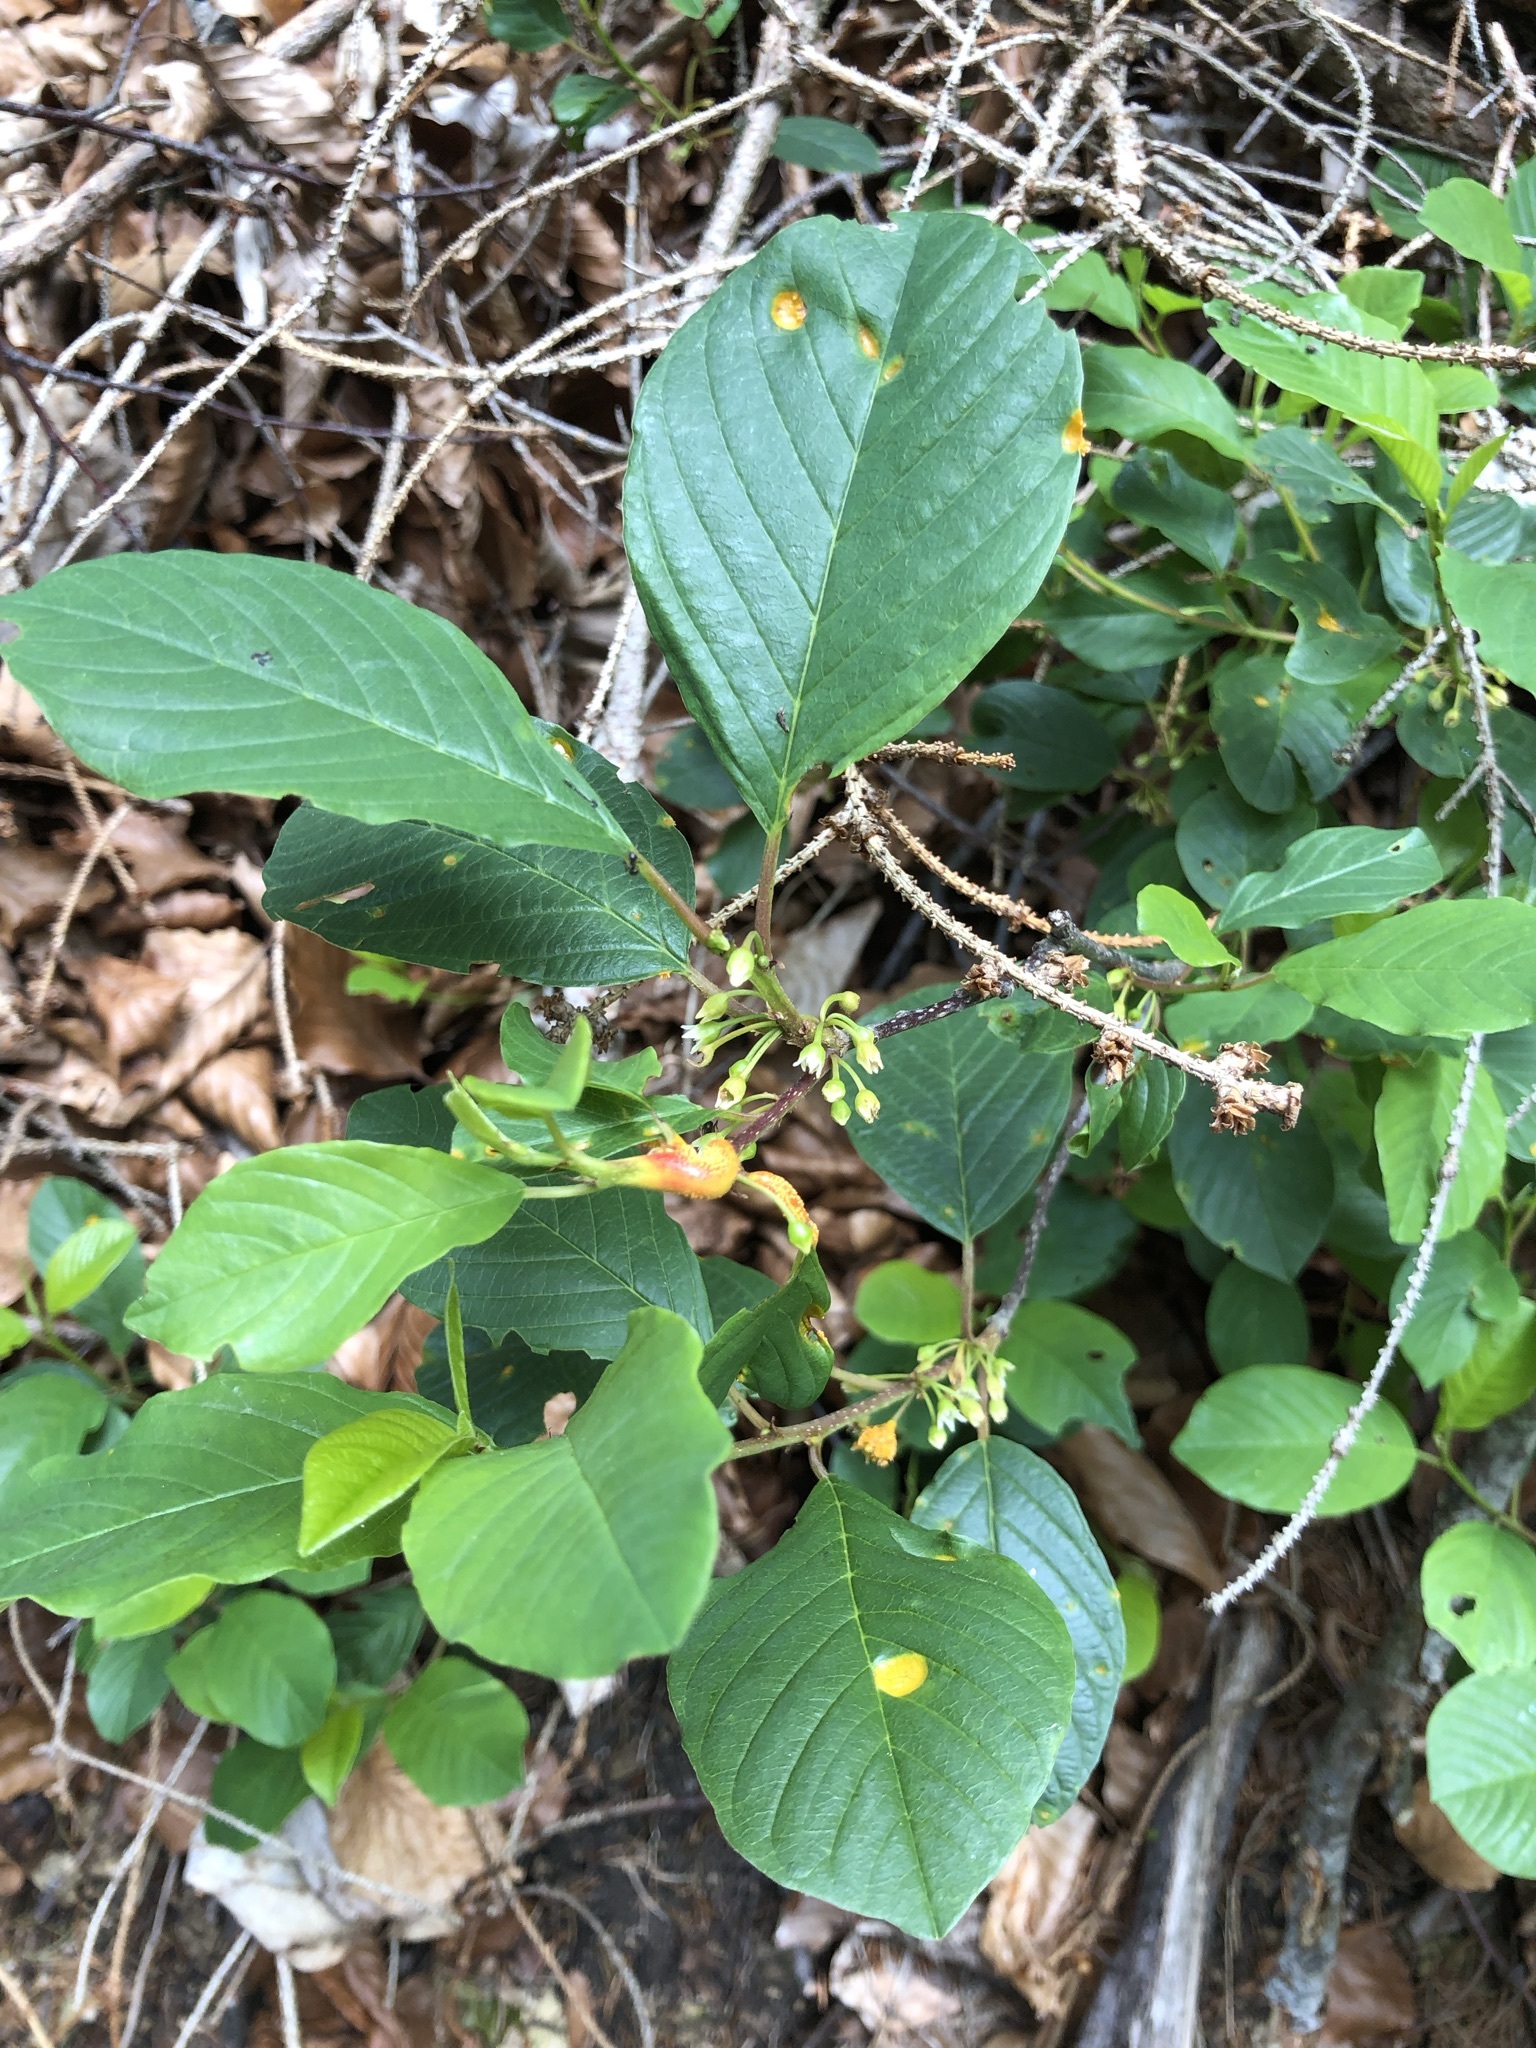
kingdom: Plantae
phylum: Tracheophyta
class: Magnoliopsida
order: Rosales
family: Rhamnaceae
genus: Frangula
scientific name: Frangula alnus
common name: Alder buckthorn
